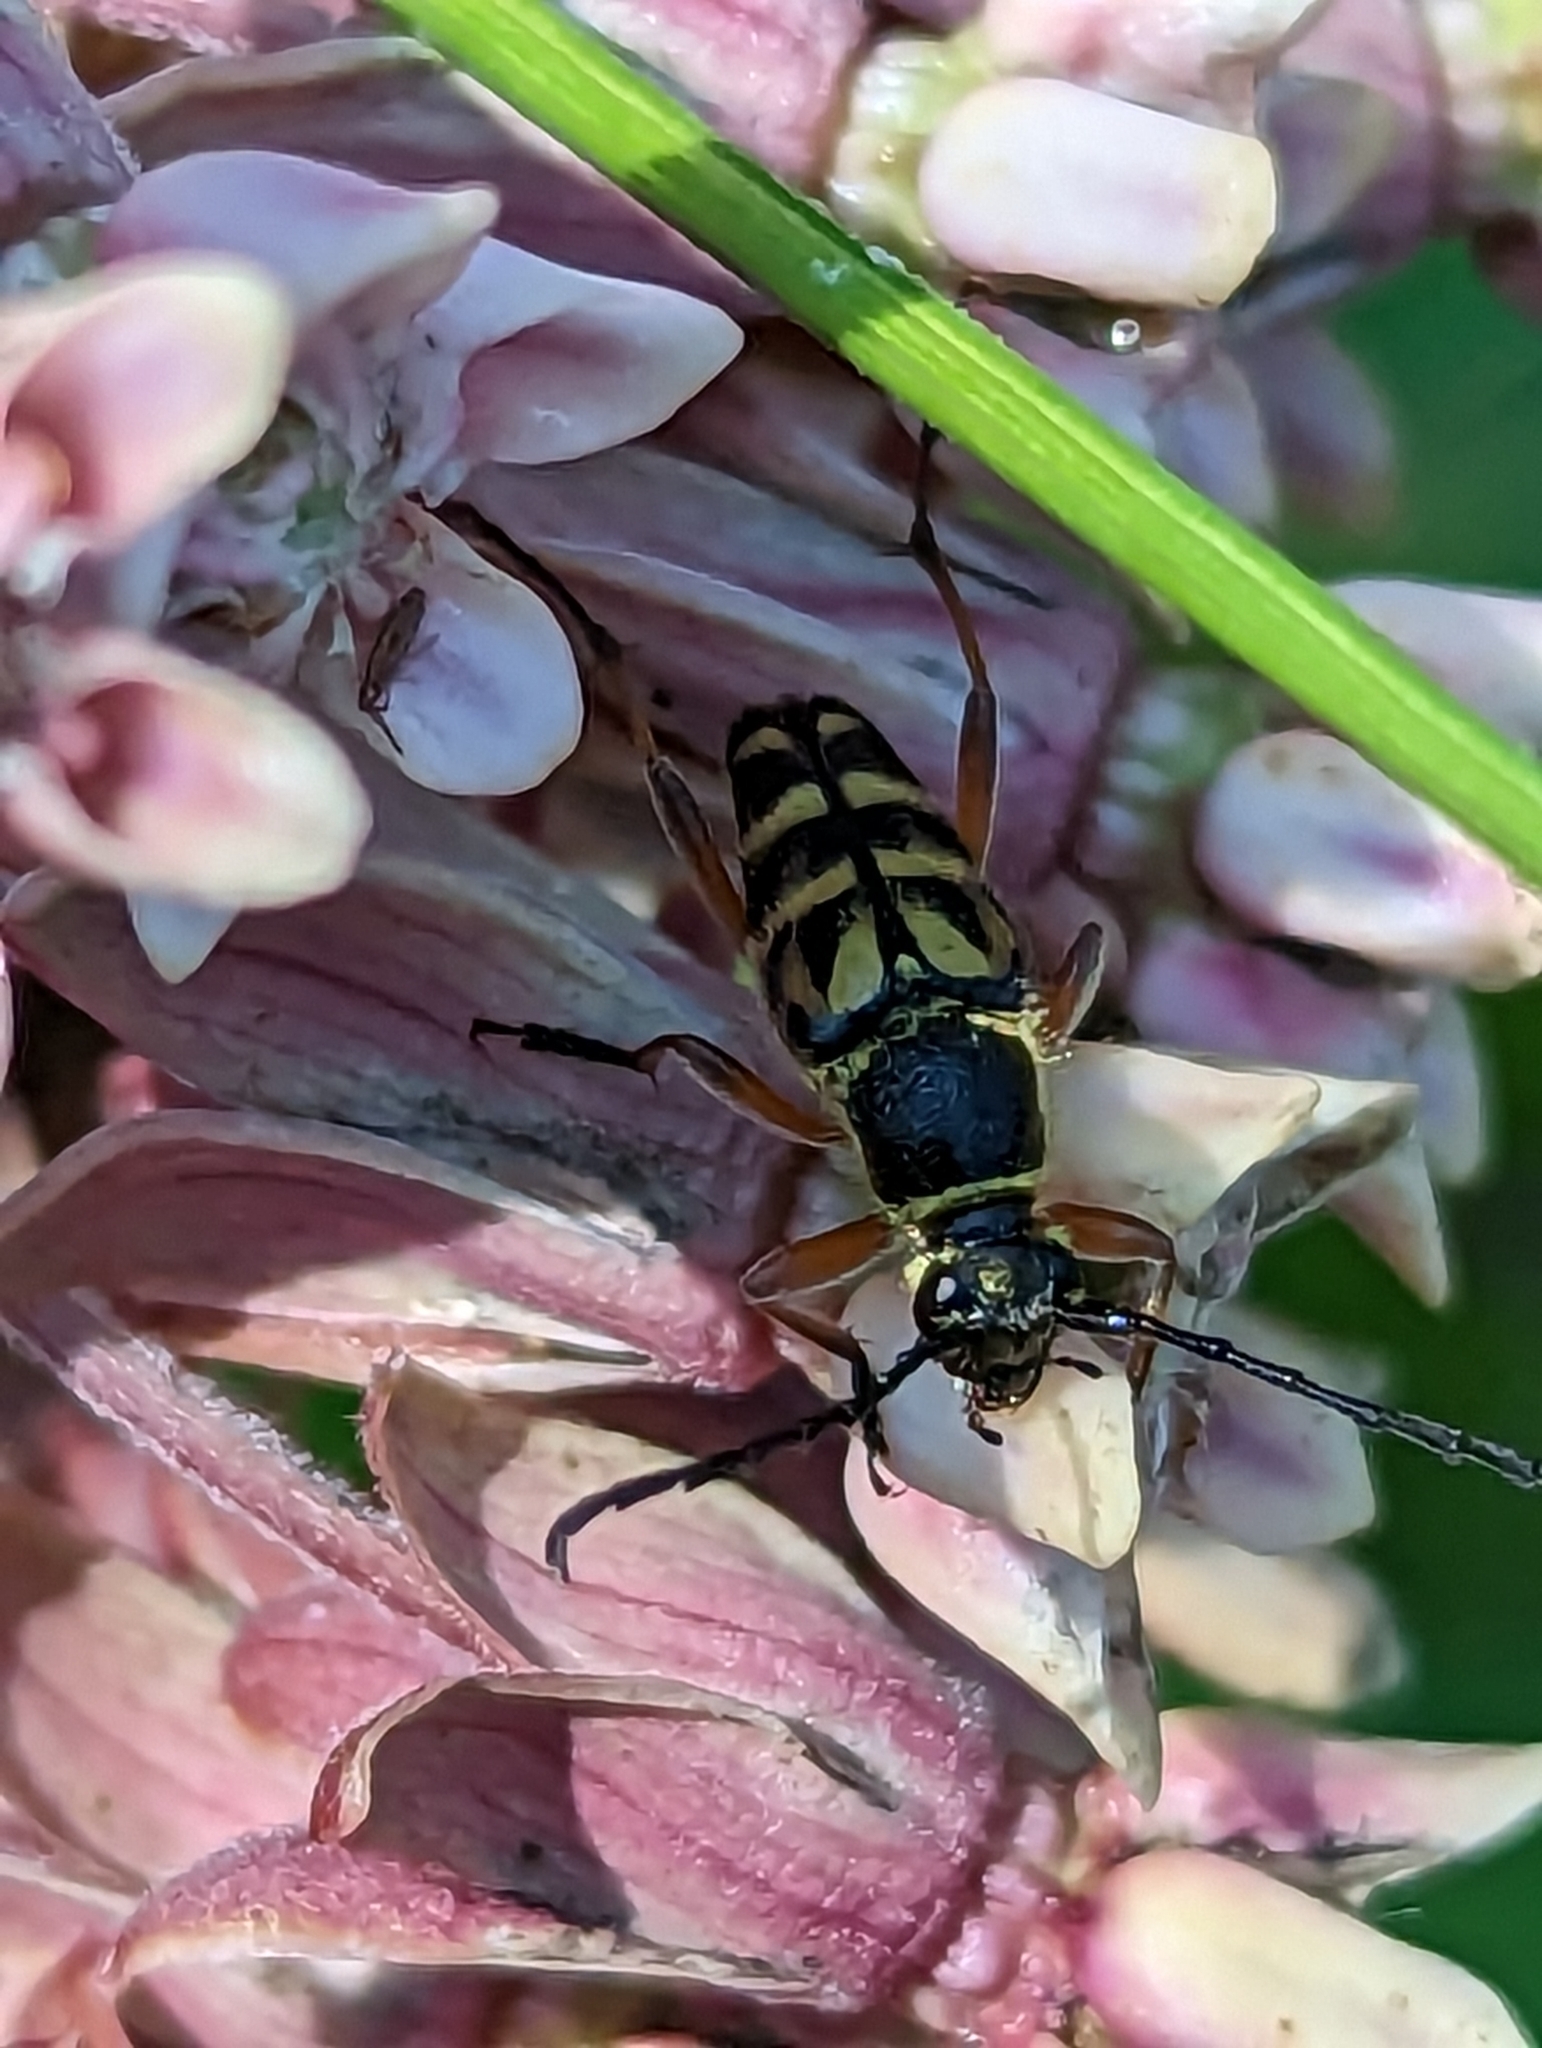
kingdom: Animalia
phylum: Arthropoda
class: Insecta
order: Coleoptera
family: Cerambycidae
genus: Typocerus
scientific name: Typocerus zebra
